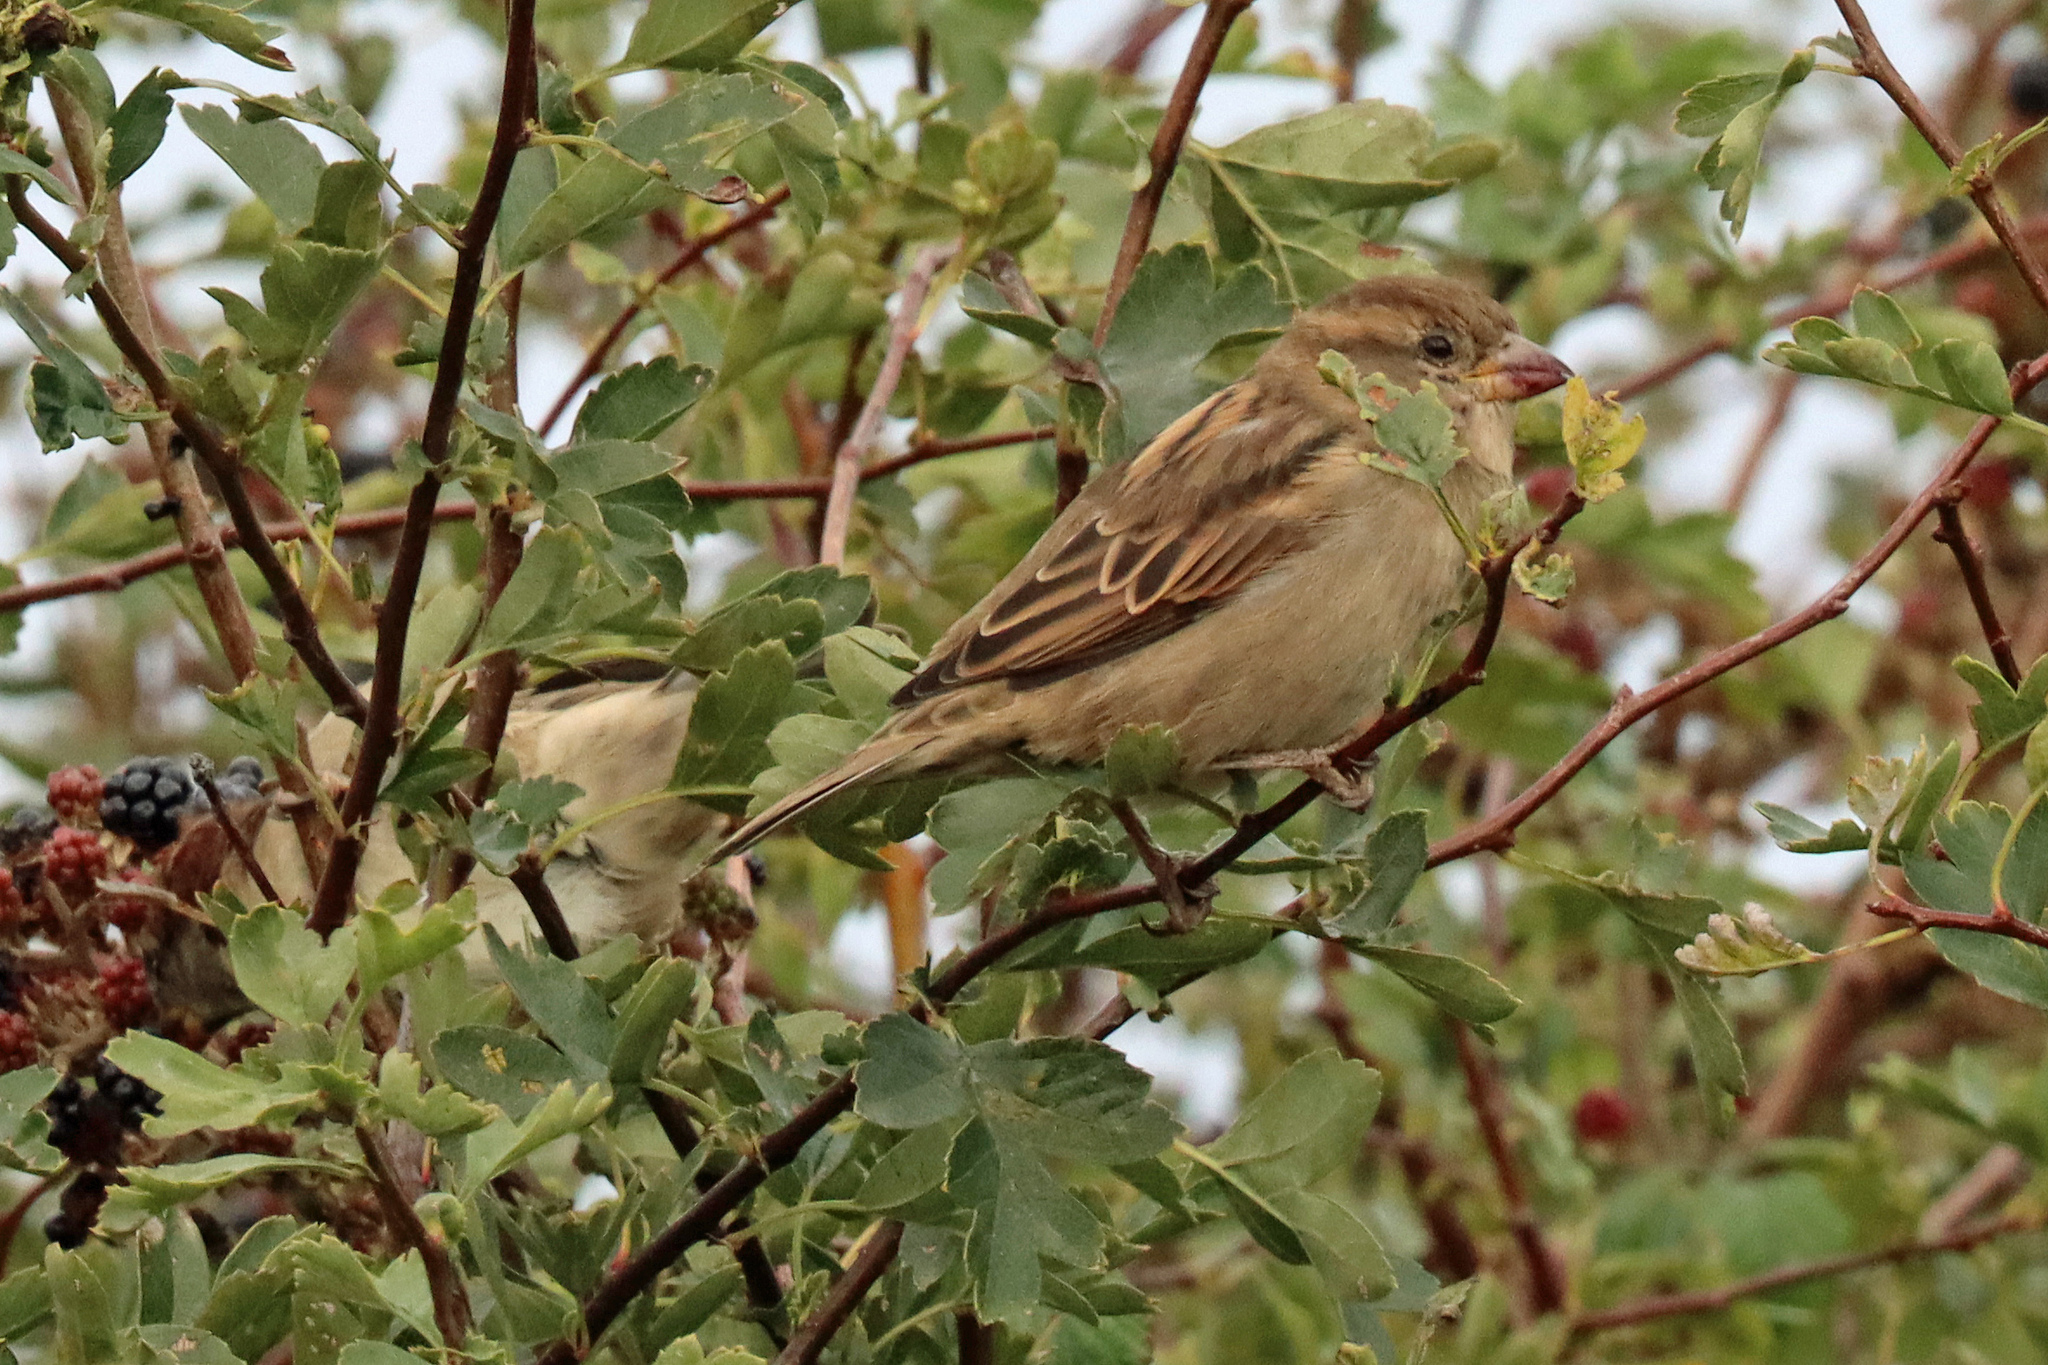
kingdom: Animalia
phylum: Chordata
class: Aves
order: Passeriformes
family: Passeridae
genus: Passer
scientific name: Passer domesticus
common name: House sparrow
